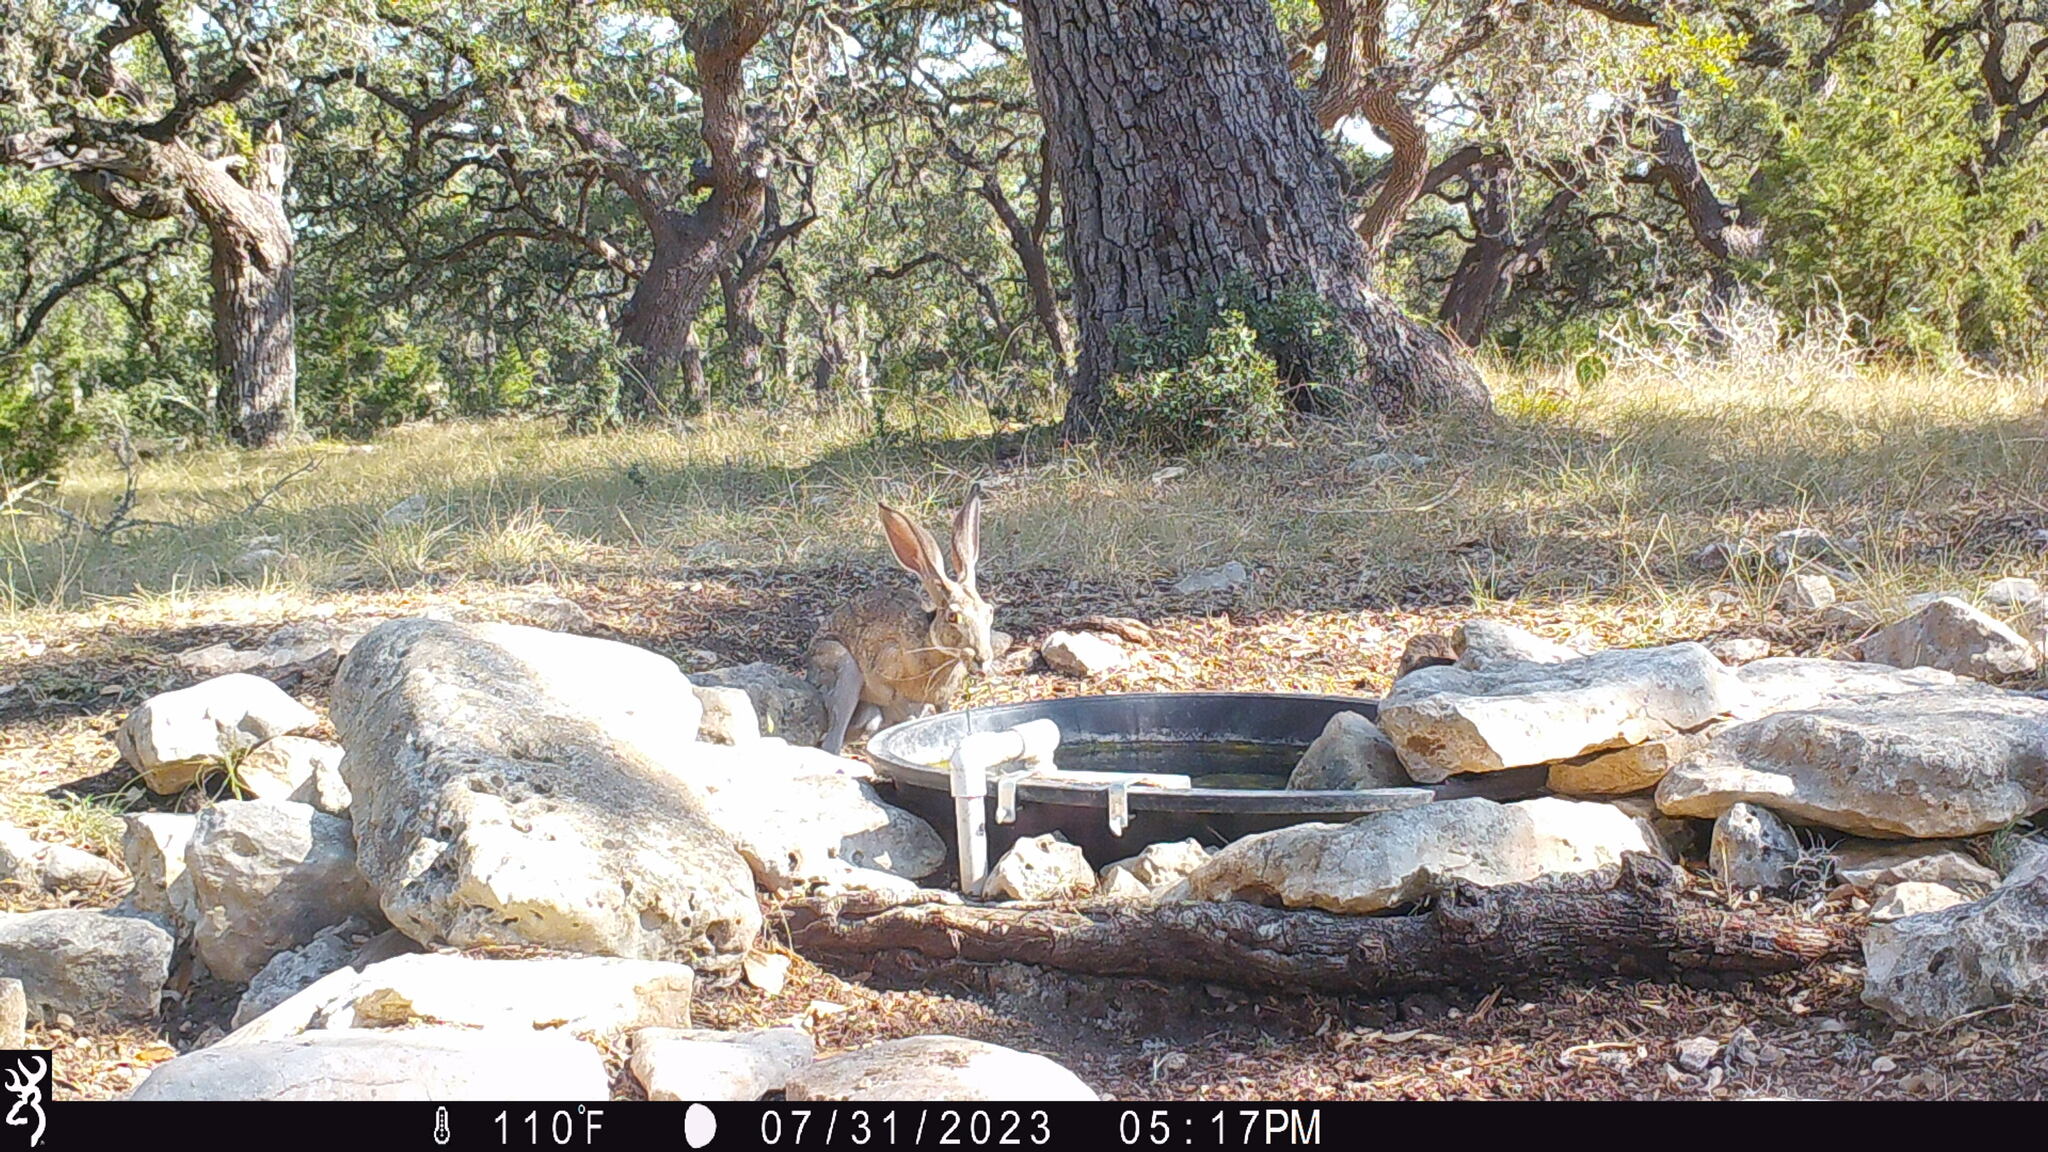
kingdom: Animalia
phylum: Chordata
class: Mammalia
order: Lagomorpha
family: Leporidae
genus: Lepus
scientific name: Lepus californicus
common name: Black-tailed jackrabbit
